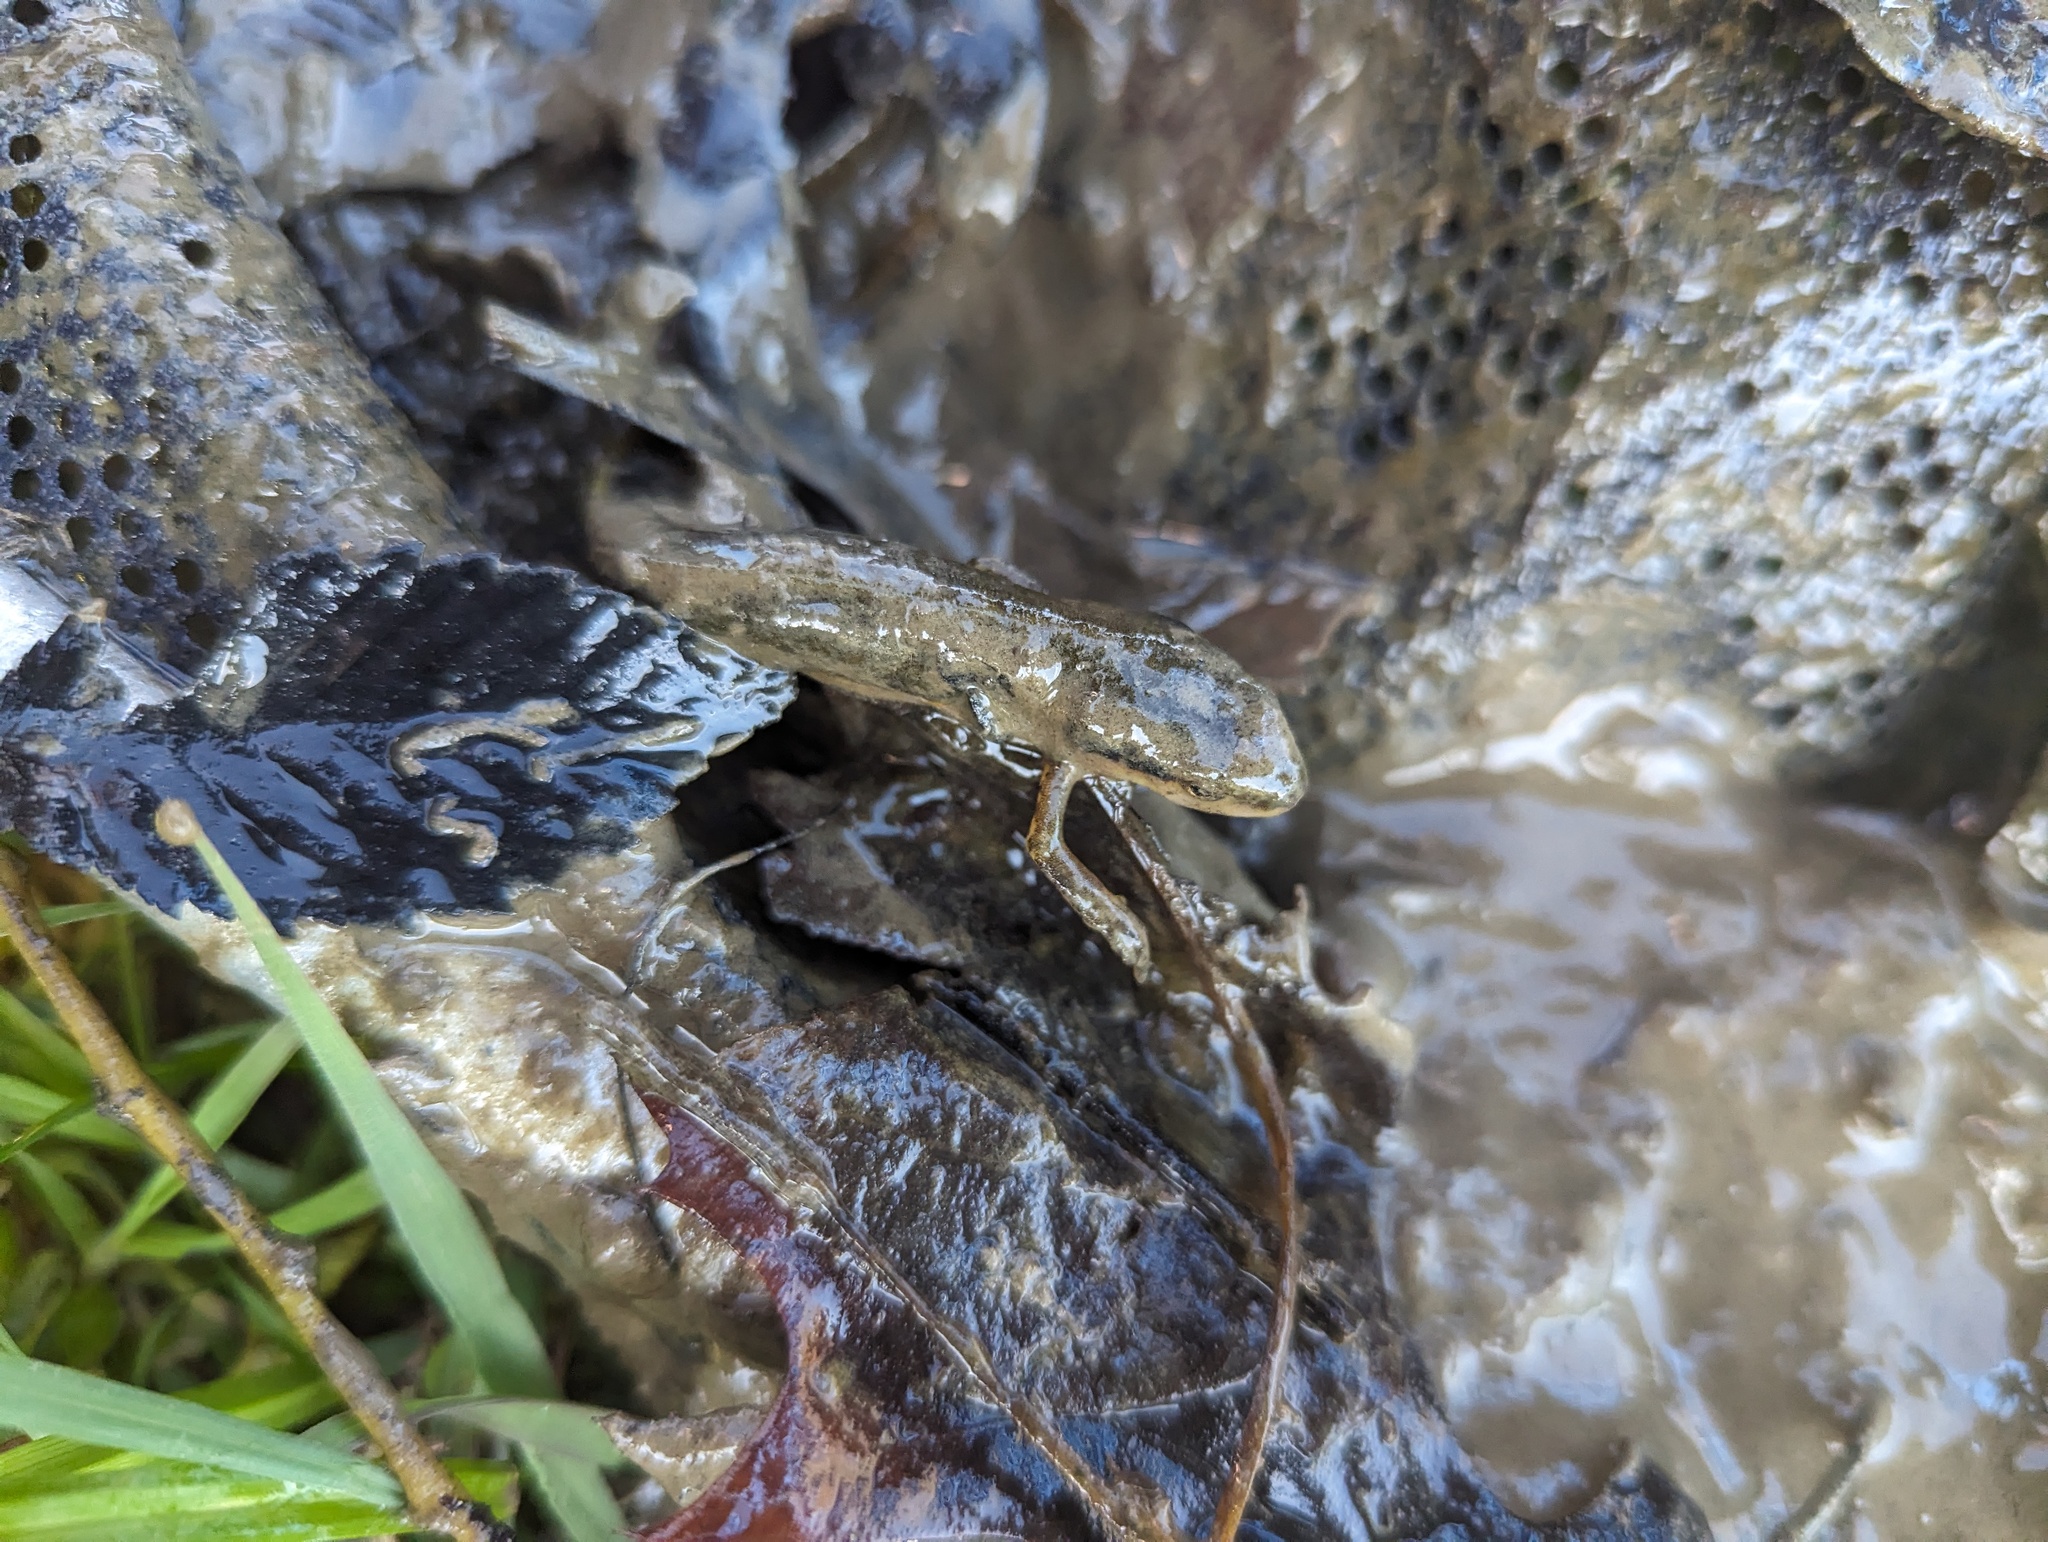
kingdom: Animalia
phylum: Chordata
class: Amphibia
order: Caudata
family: Salamandridae
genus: Notophthalmus
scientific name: Notophthalmus viridescens
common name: Eastern newt
